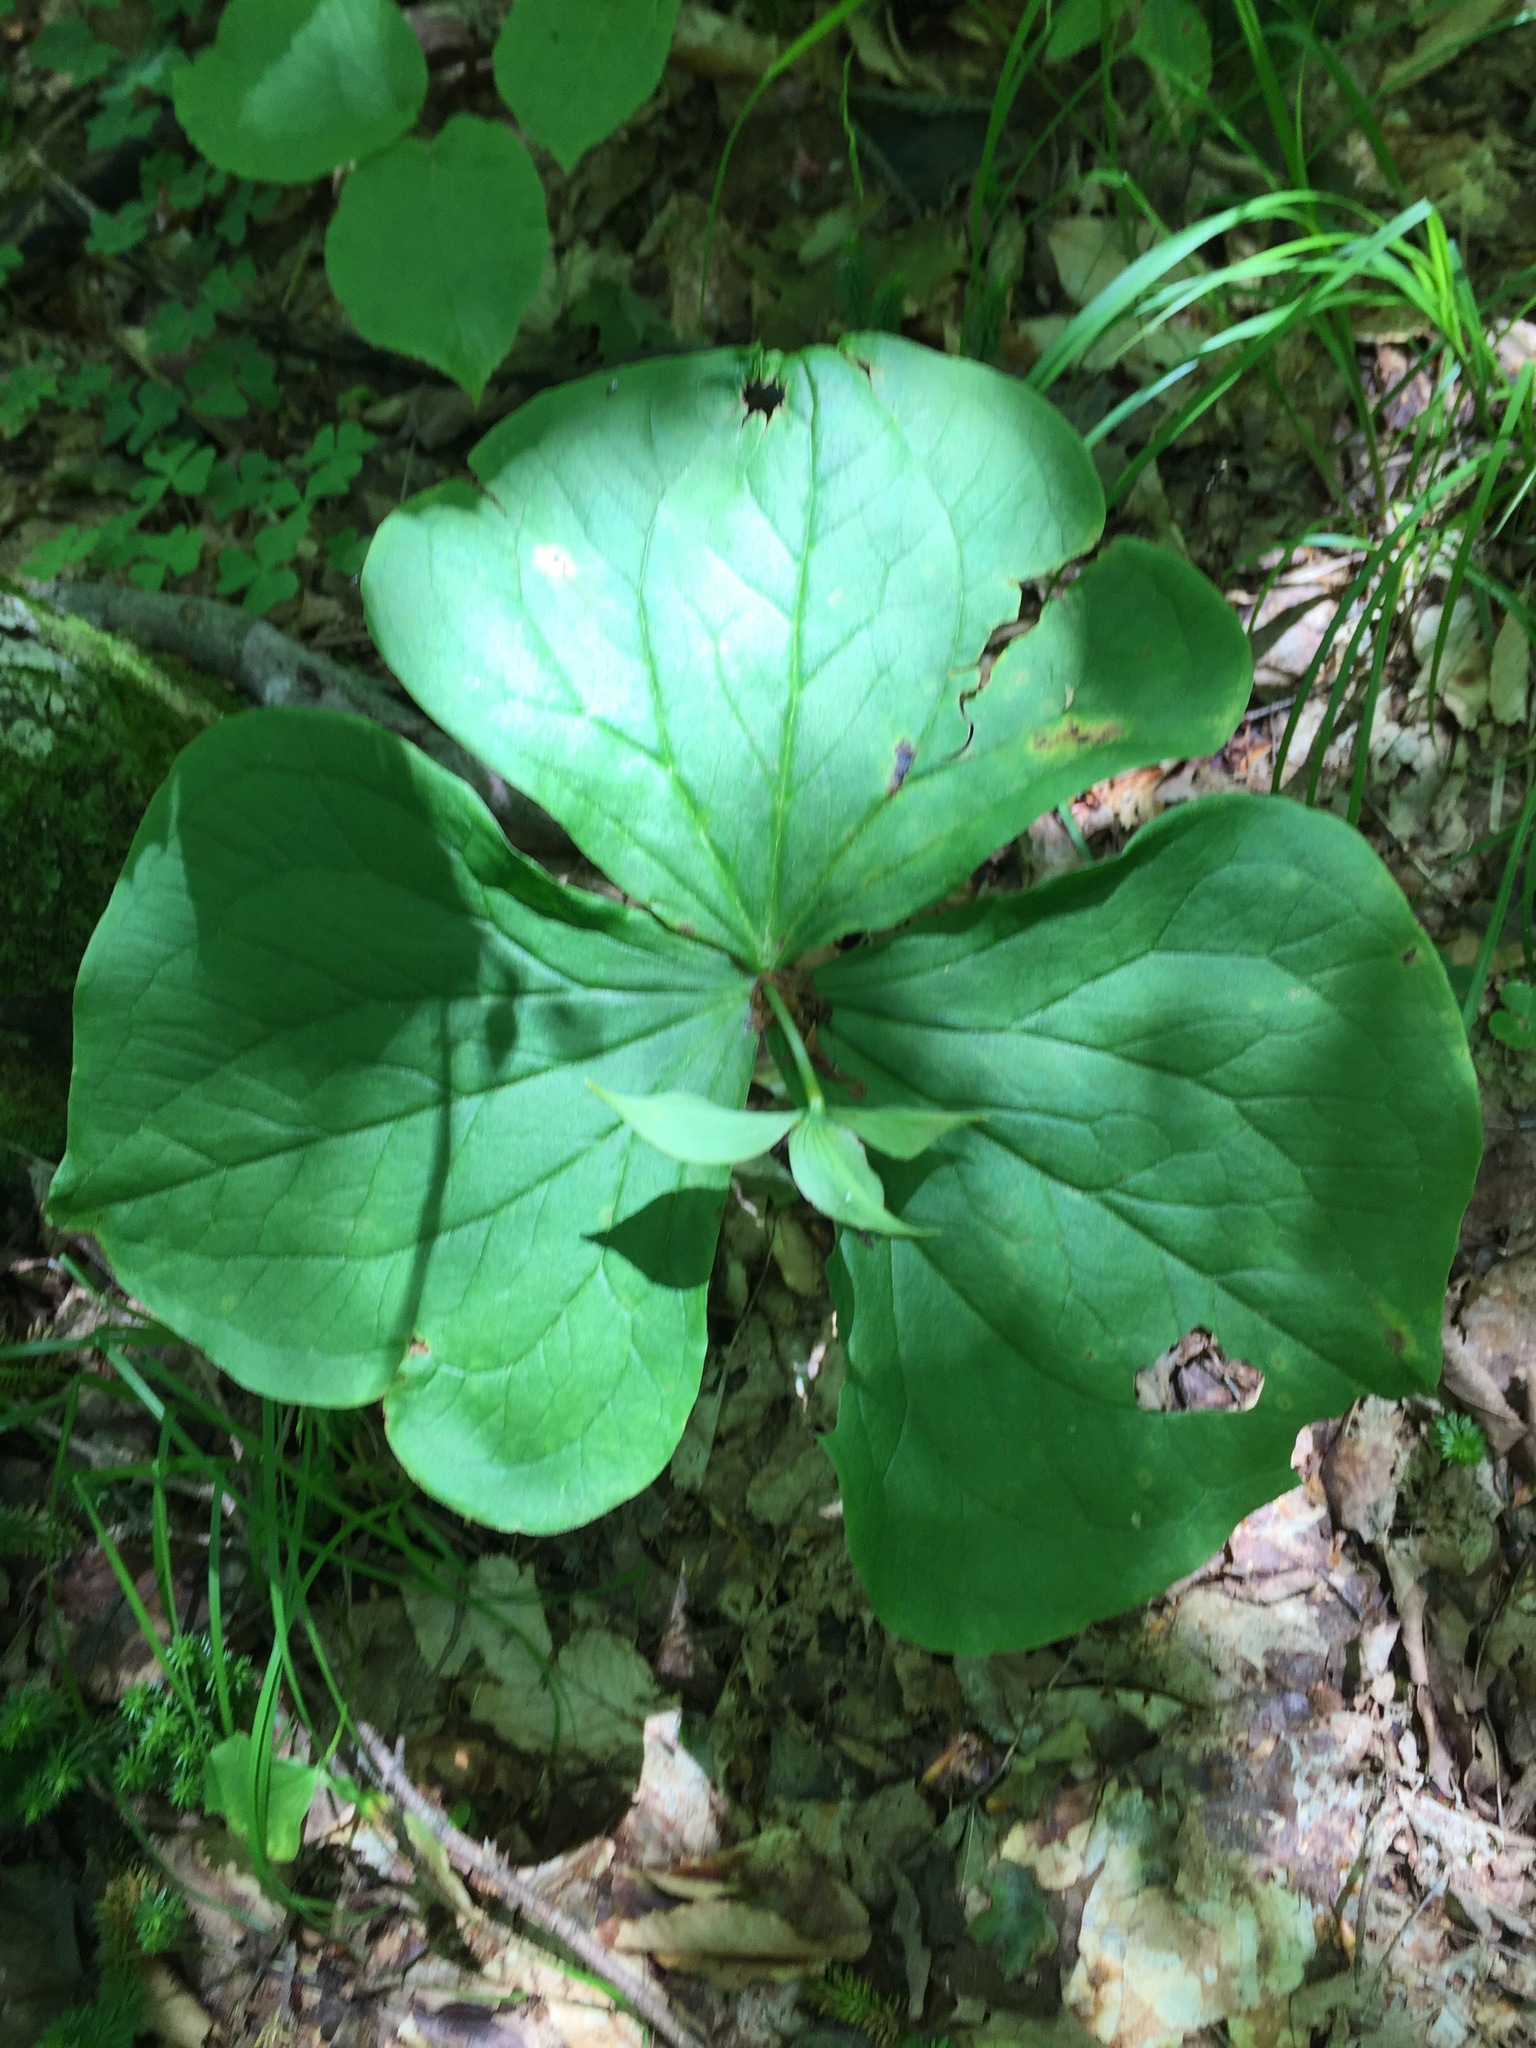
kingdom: Plantae
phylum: Tracheophyta
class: Liliopsida
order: Liliales
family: Melanthiaceae
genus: Trillium
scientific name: Trillium erectum
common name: Purple trillium
